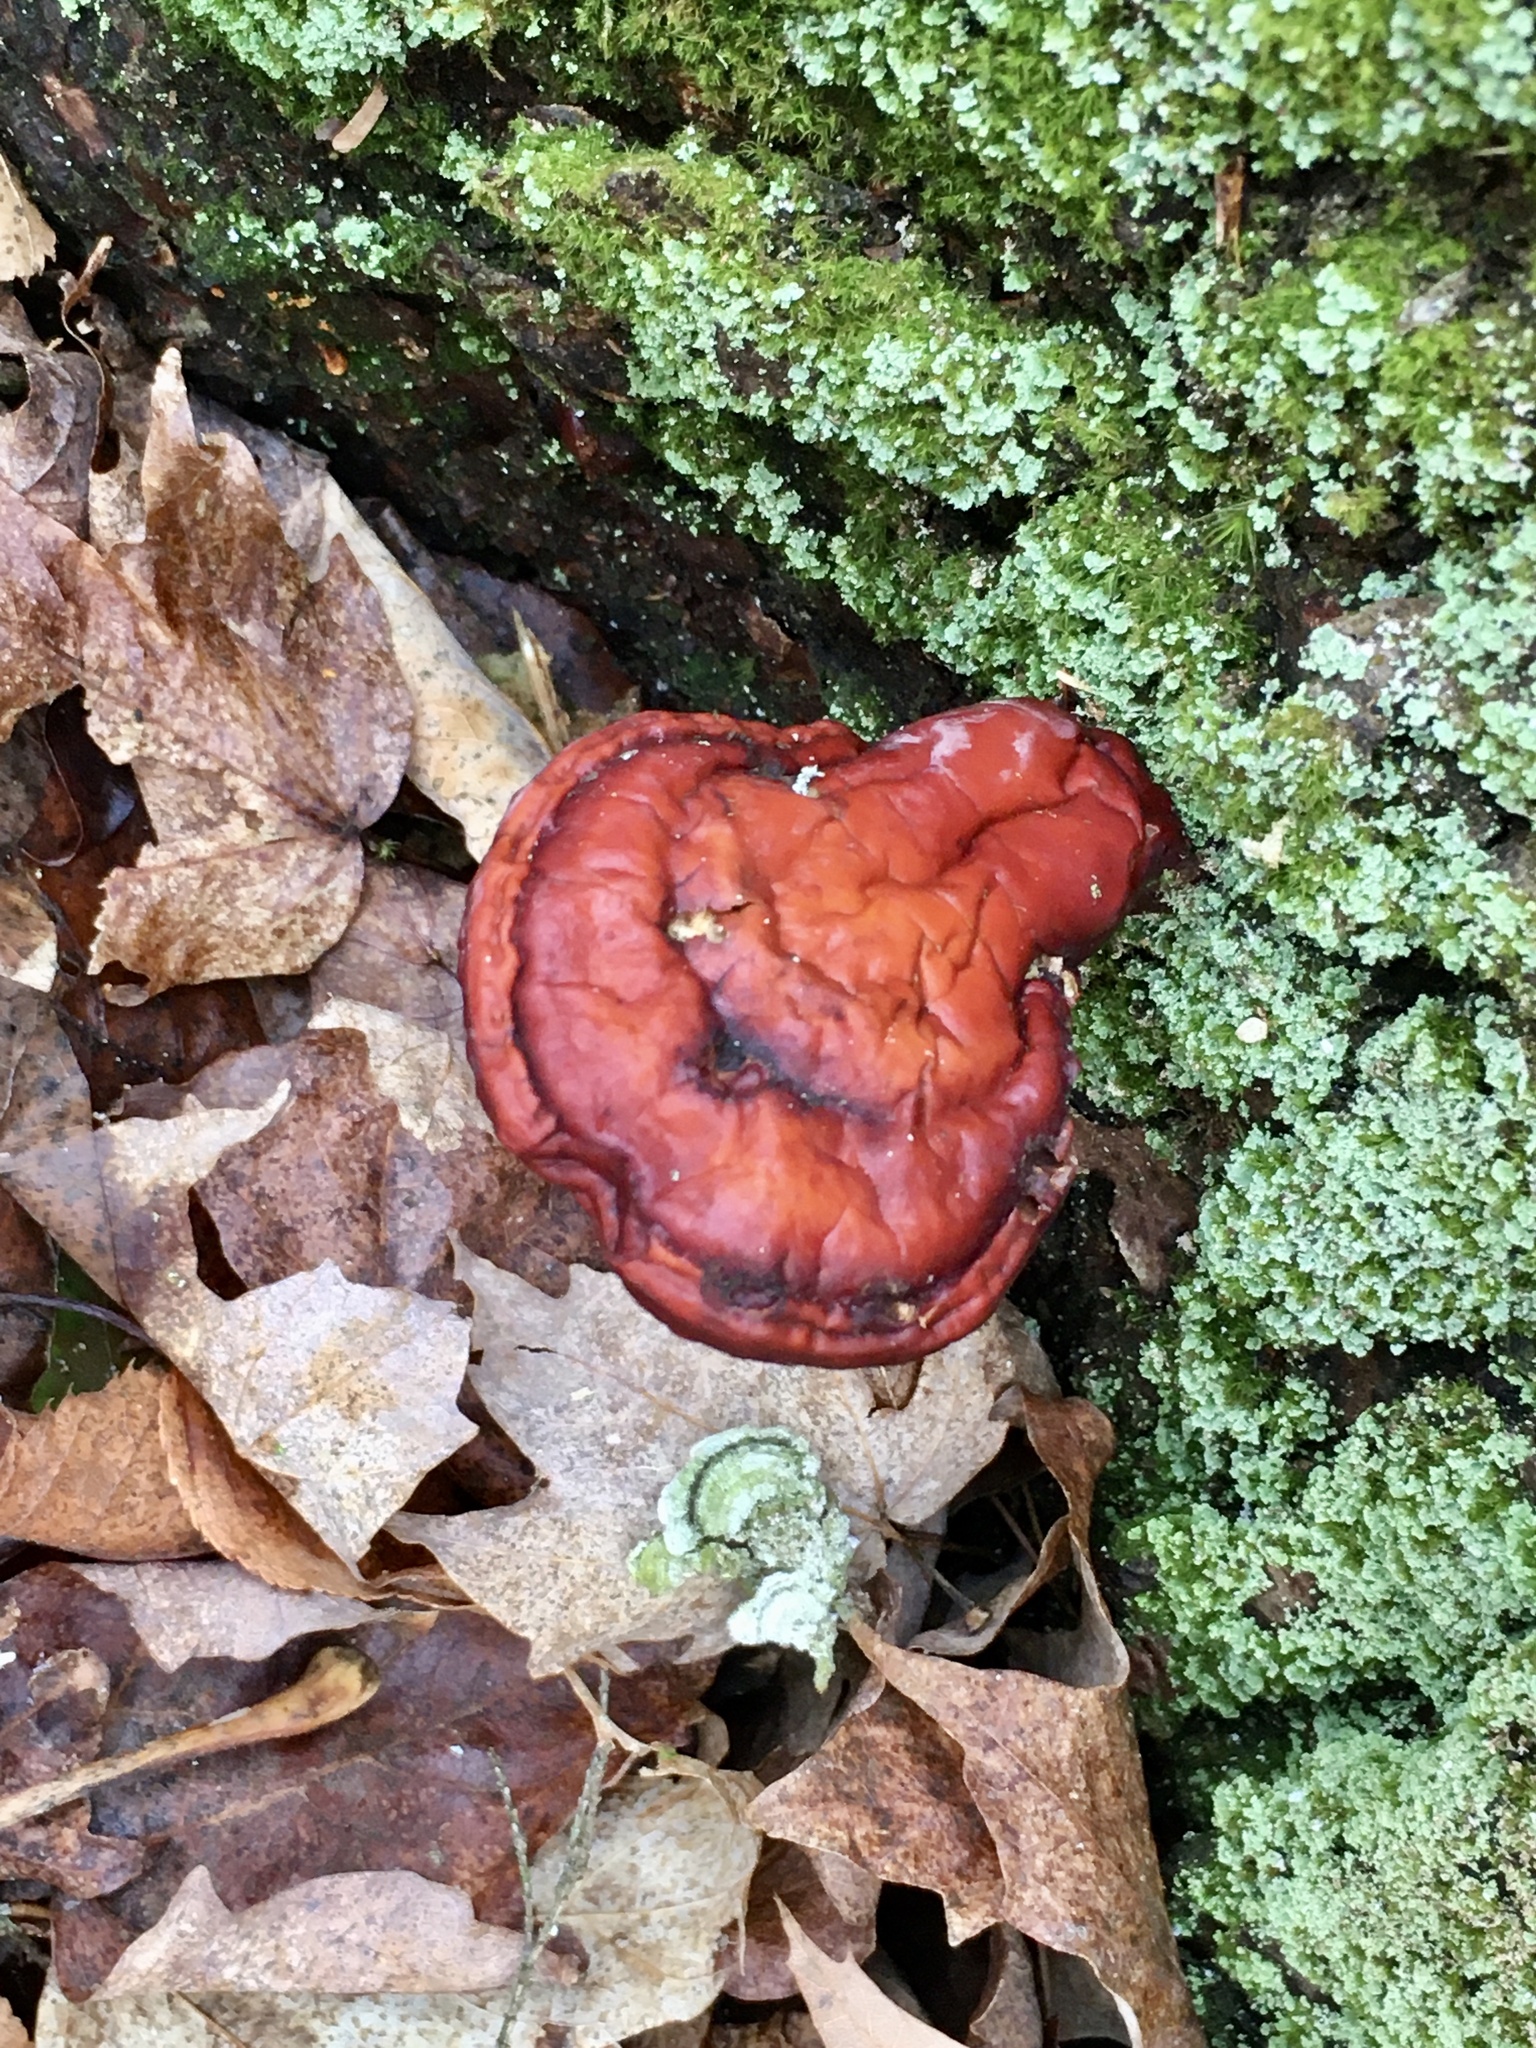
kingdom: Fungi
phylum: Basidiomycota
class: Agaricomycetes
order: Polyporales
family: Polyporaceae
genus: Ganoderma
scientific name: Ganoderma tsugae
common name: Hemlock varnish shelf
